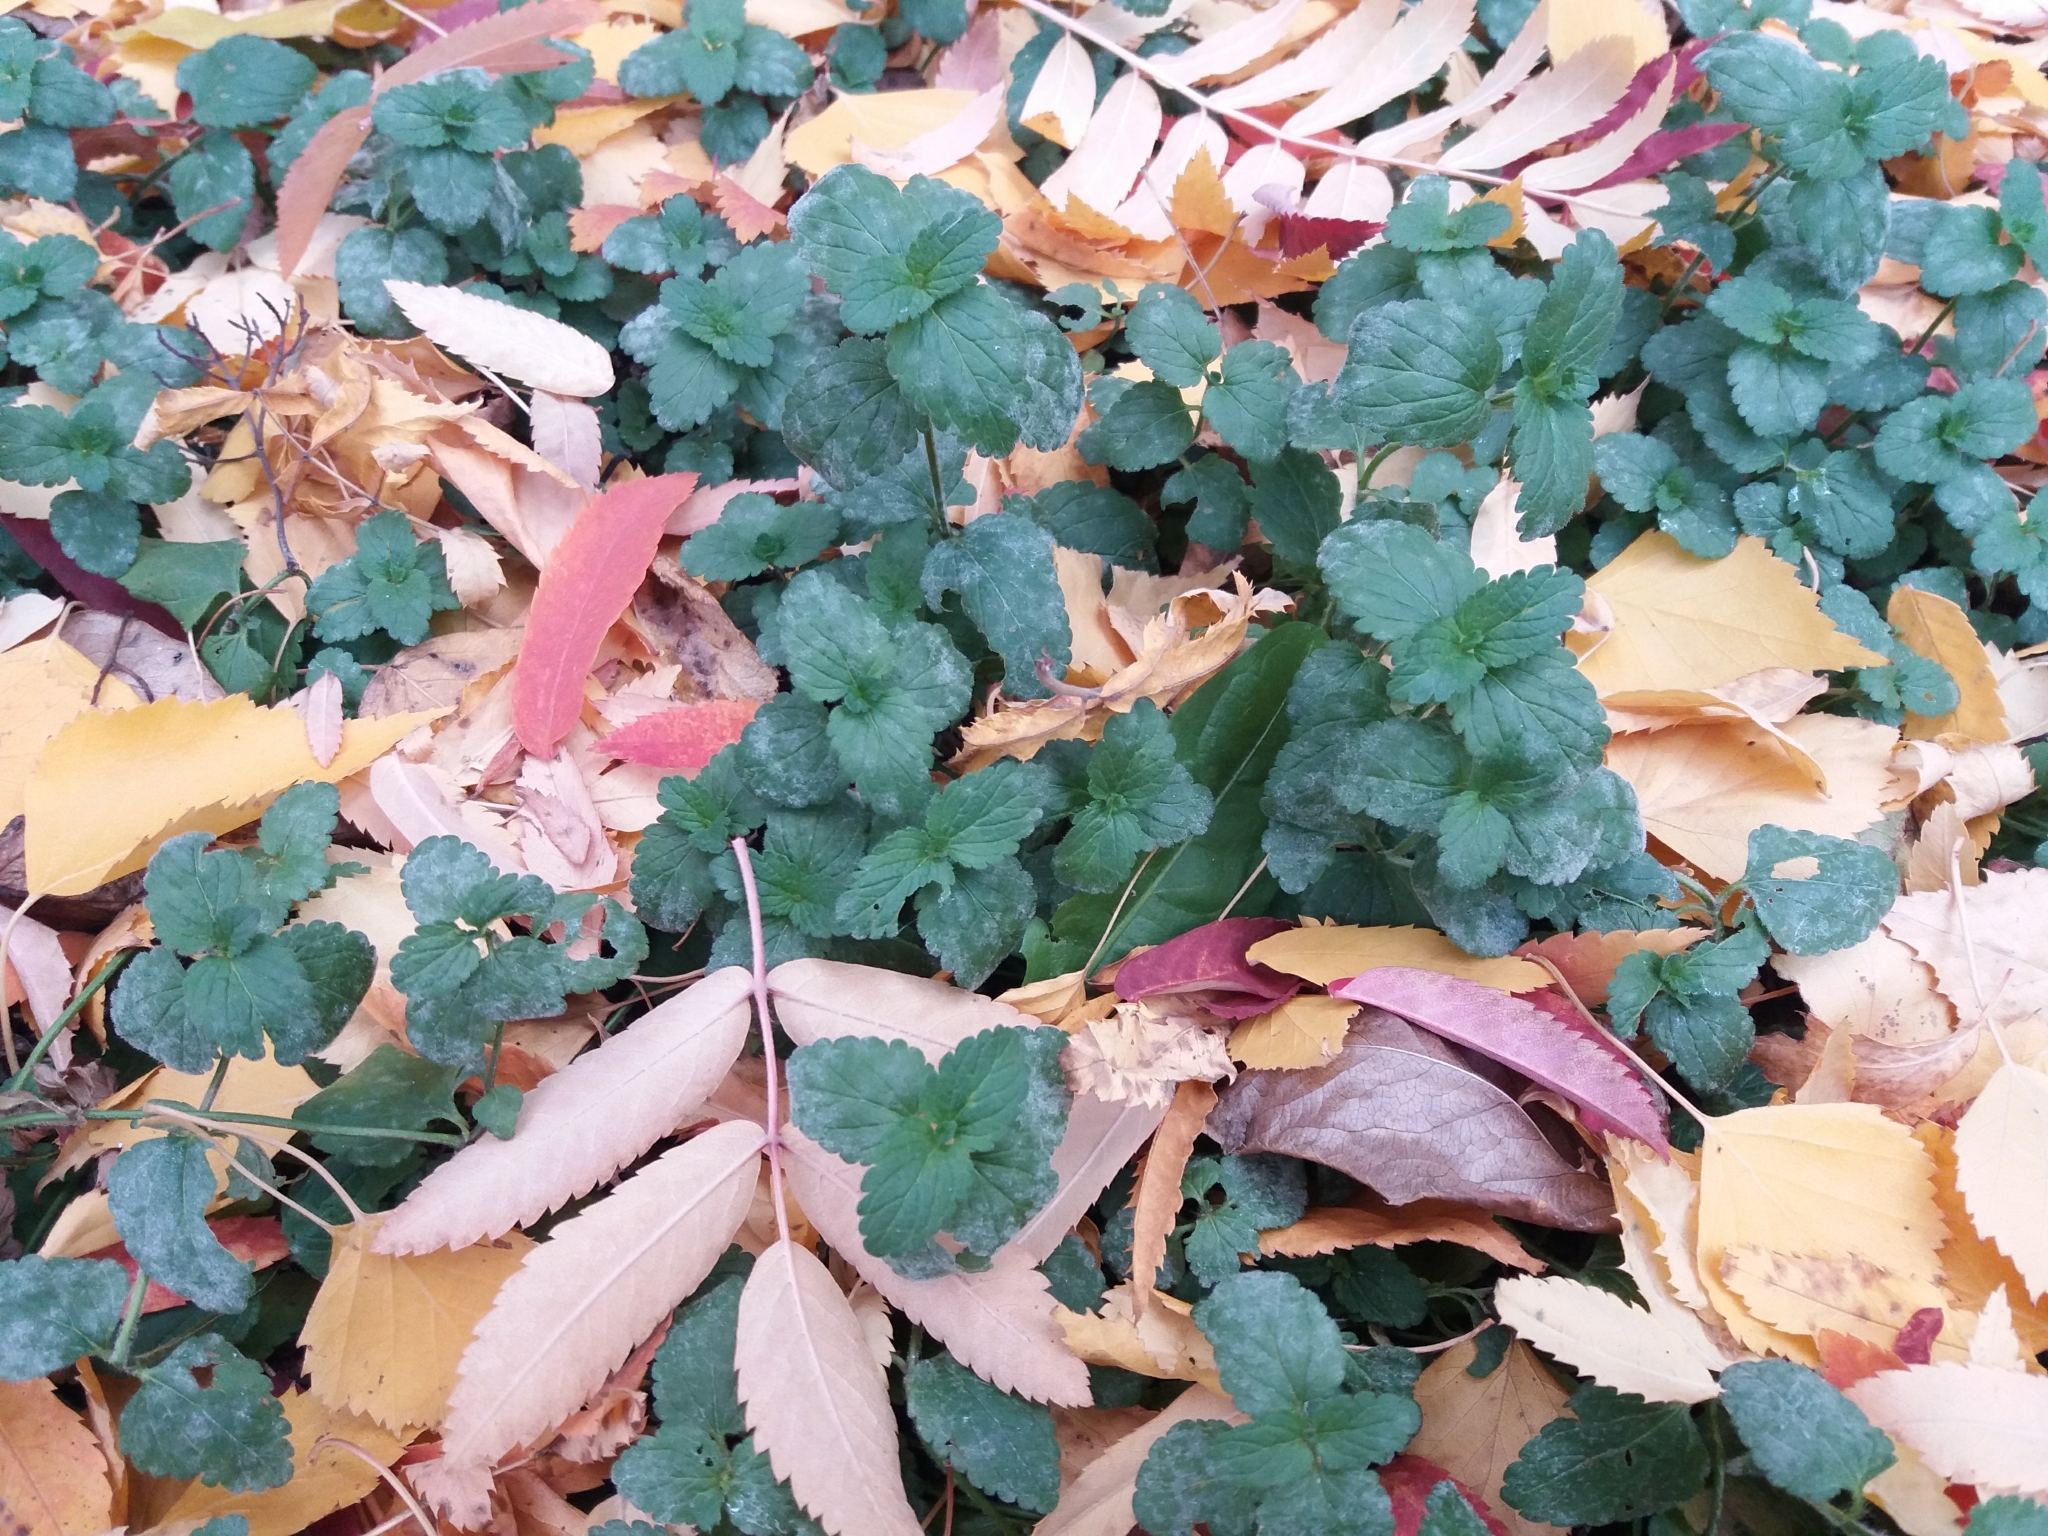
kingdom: Plantae
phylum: Tracheophyta
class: Magnoliopsida
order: Lamiales
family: Plantaginaceae
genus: Veronica
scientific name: Veronica chamaedrys
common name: Germander speedwell
